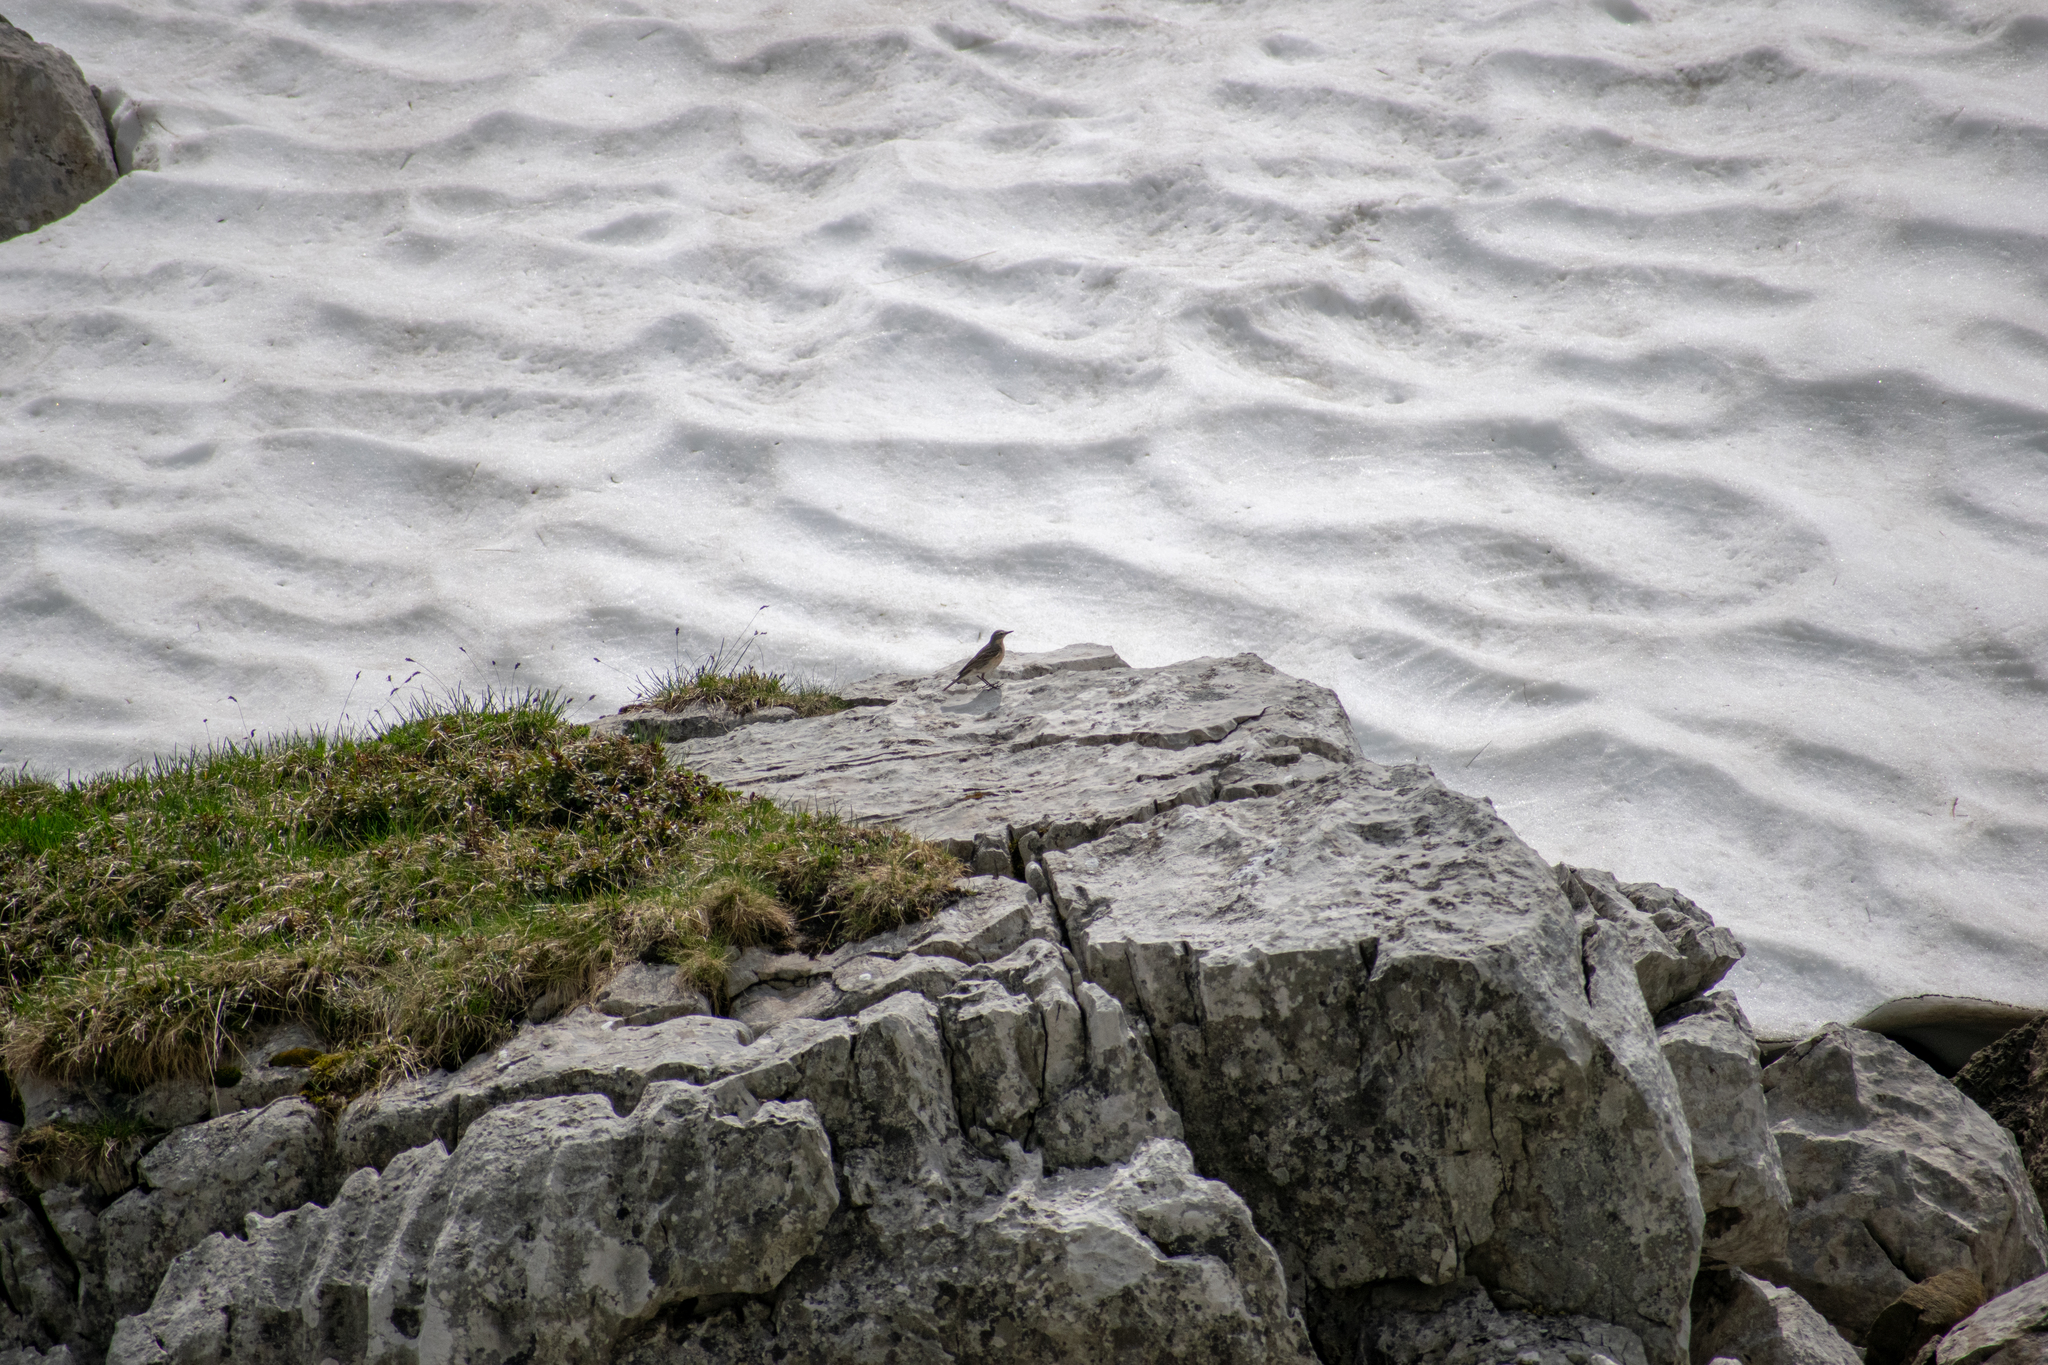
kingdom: Animalia
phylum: Chordata
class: Aves
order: Passeriformes
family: Motacillidae
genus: Anthus
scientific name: Anthus spinoletta
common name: Water pipit
